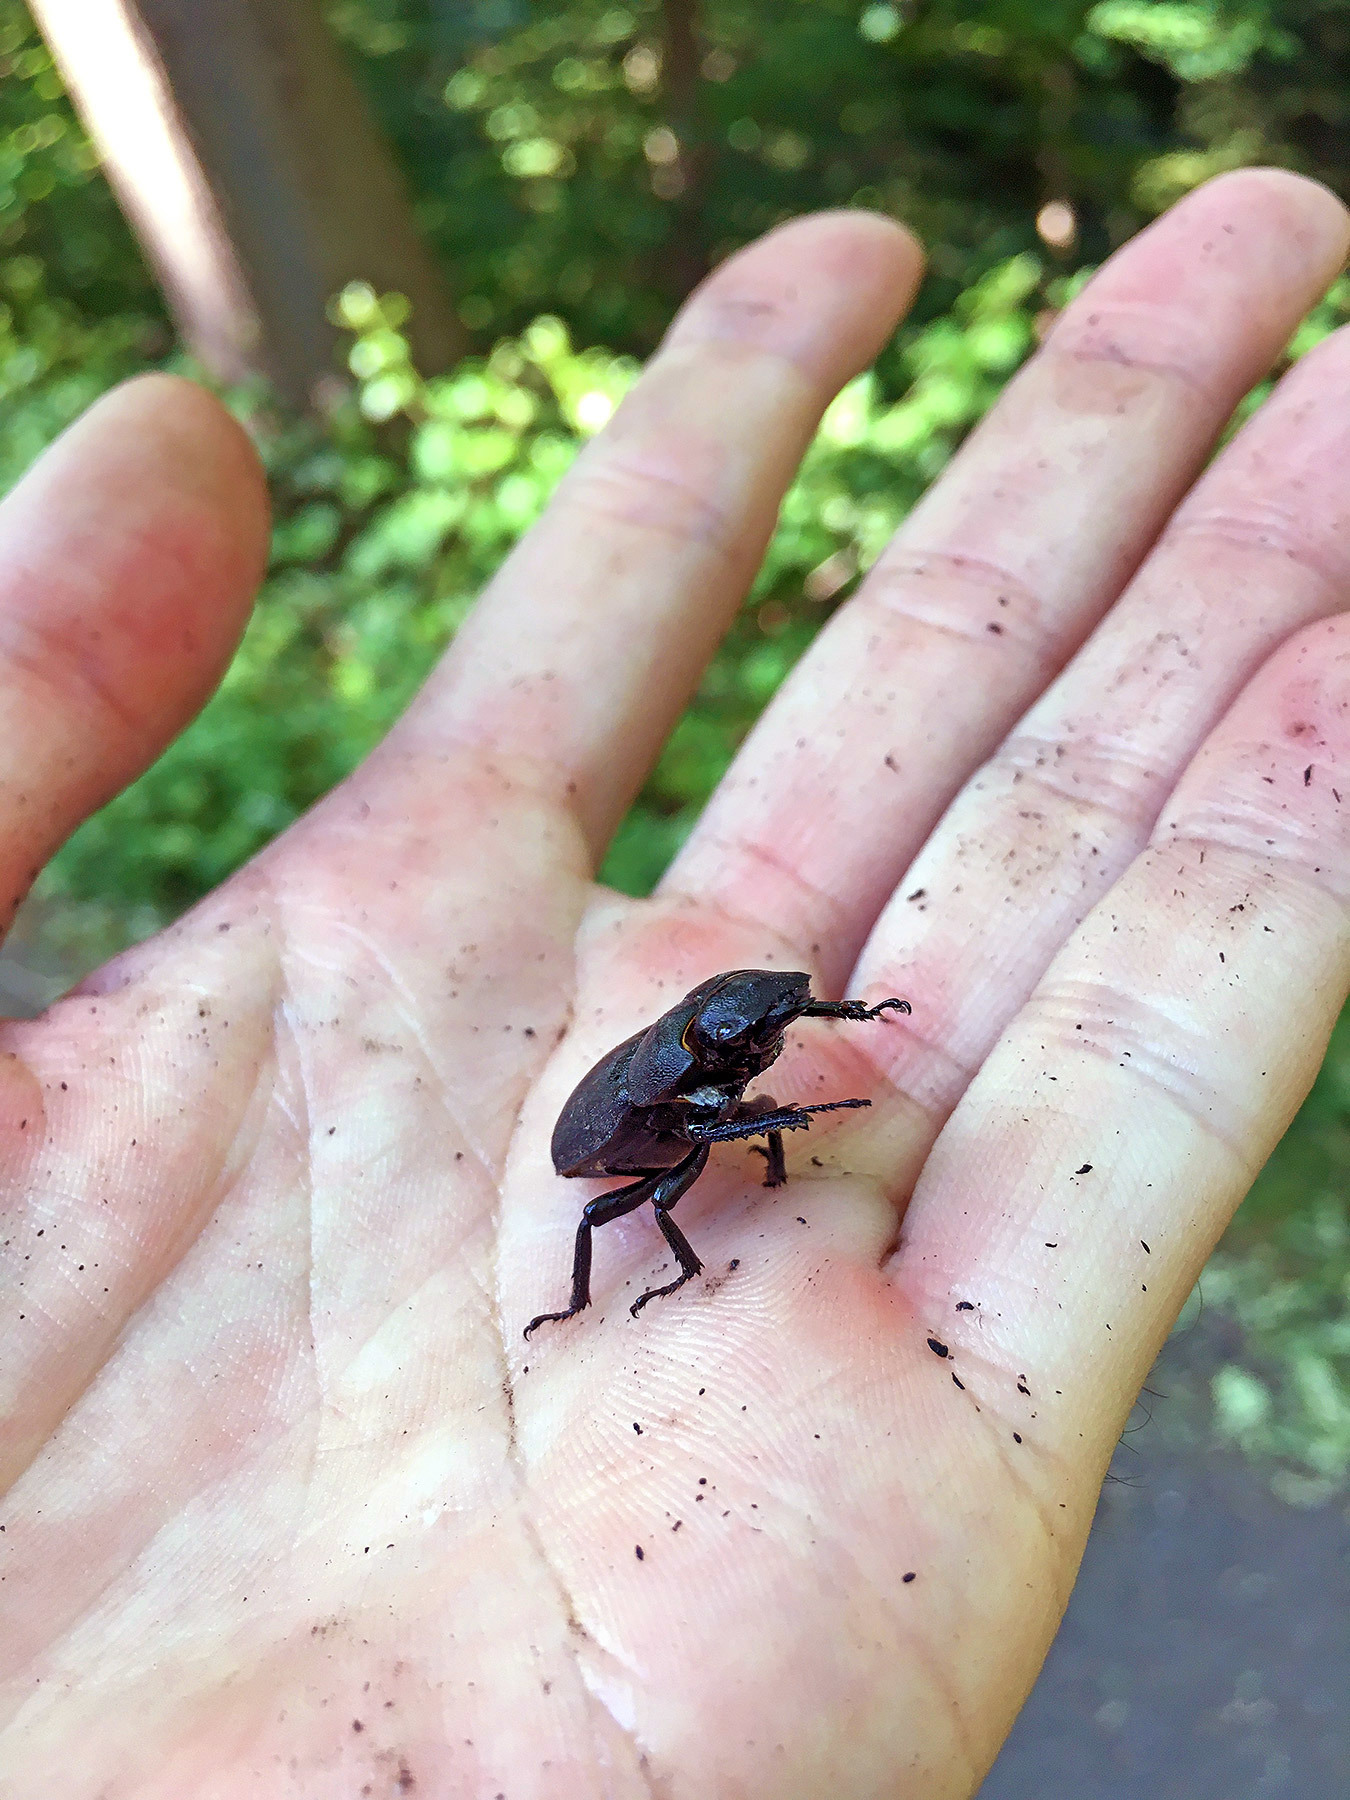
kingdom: Animalia
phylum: Arthropoda
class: Insecta
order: Coleoptera
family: Lucanidae
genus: Dorcus
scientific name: Dorcus parallelipipedus
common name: Lesser stag beetle
